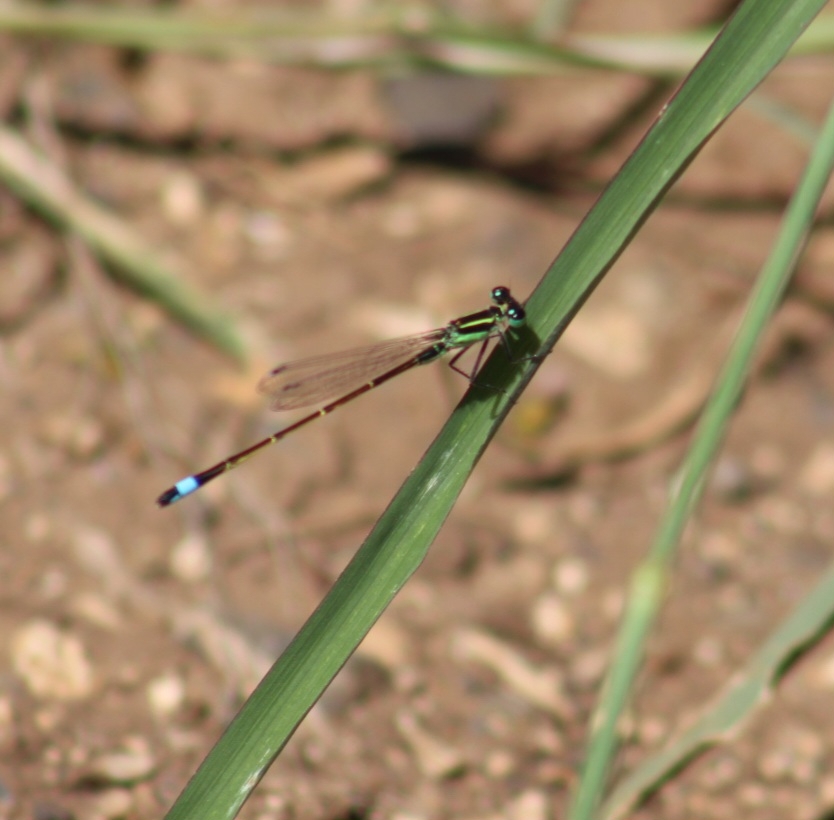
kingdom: Animalia
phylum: Arthropoda
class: Insecta
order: Odonata
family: Coenagrionidae
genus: Ischnura
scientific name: Ischnura ramburii
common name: Rambur's forktail
